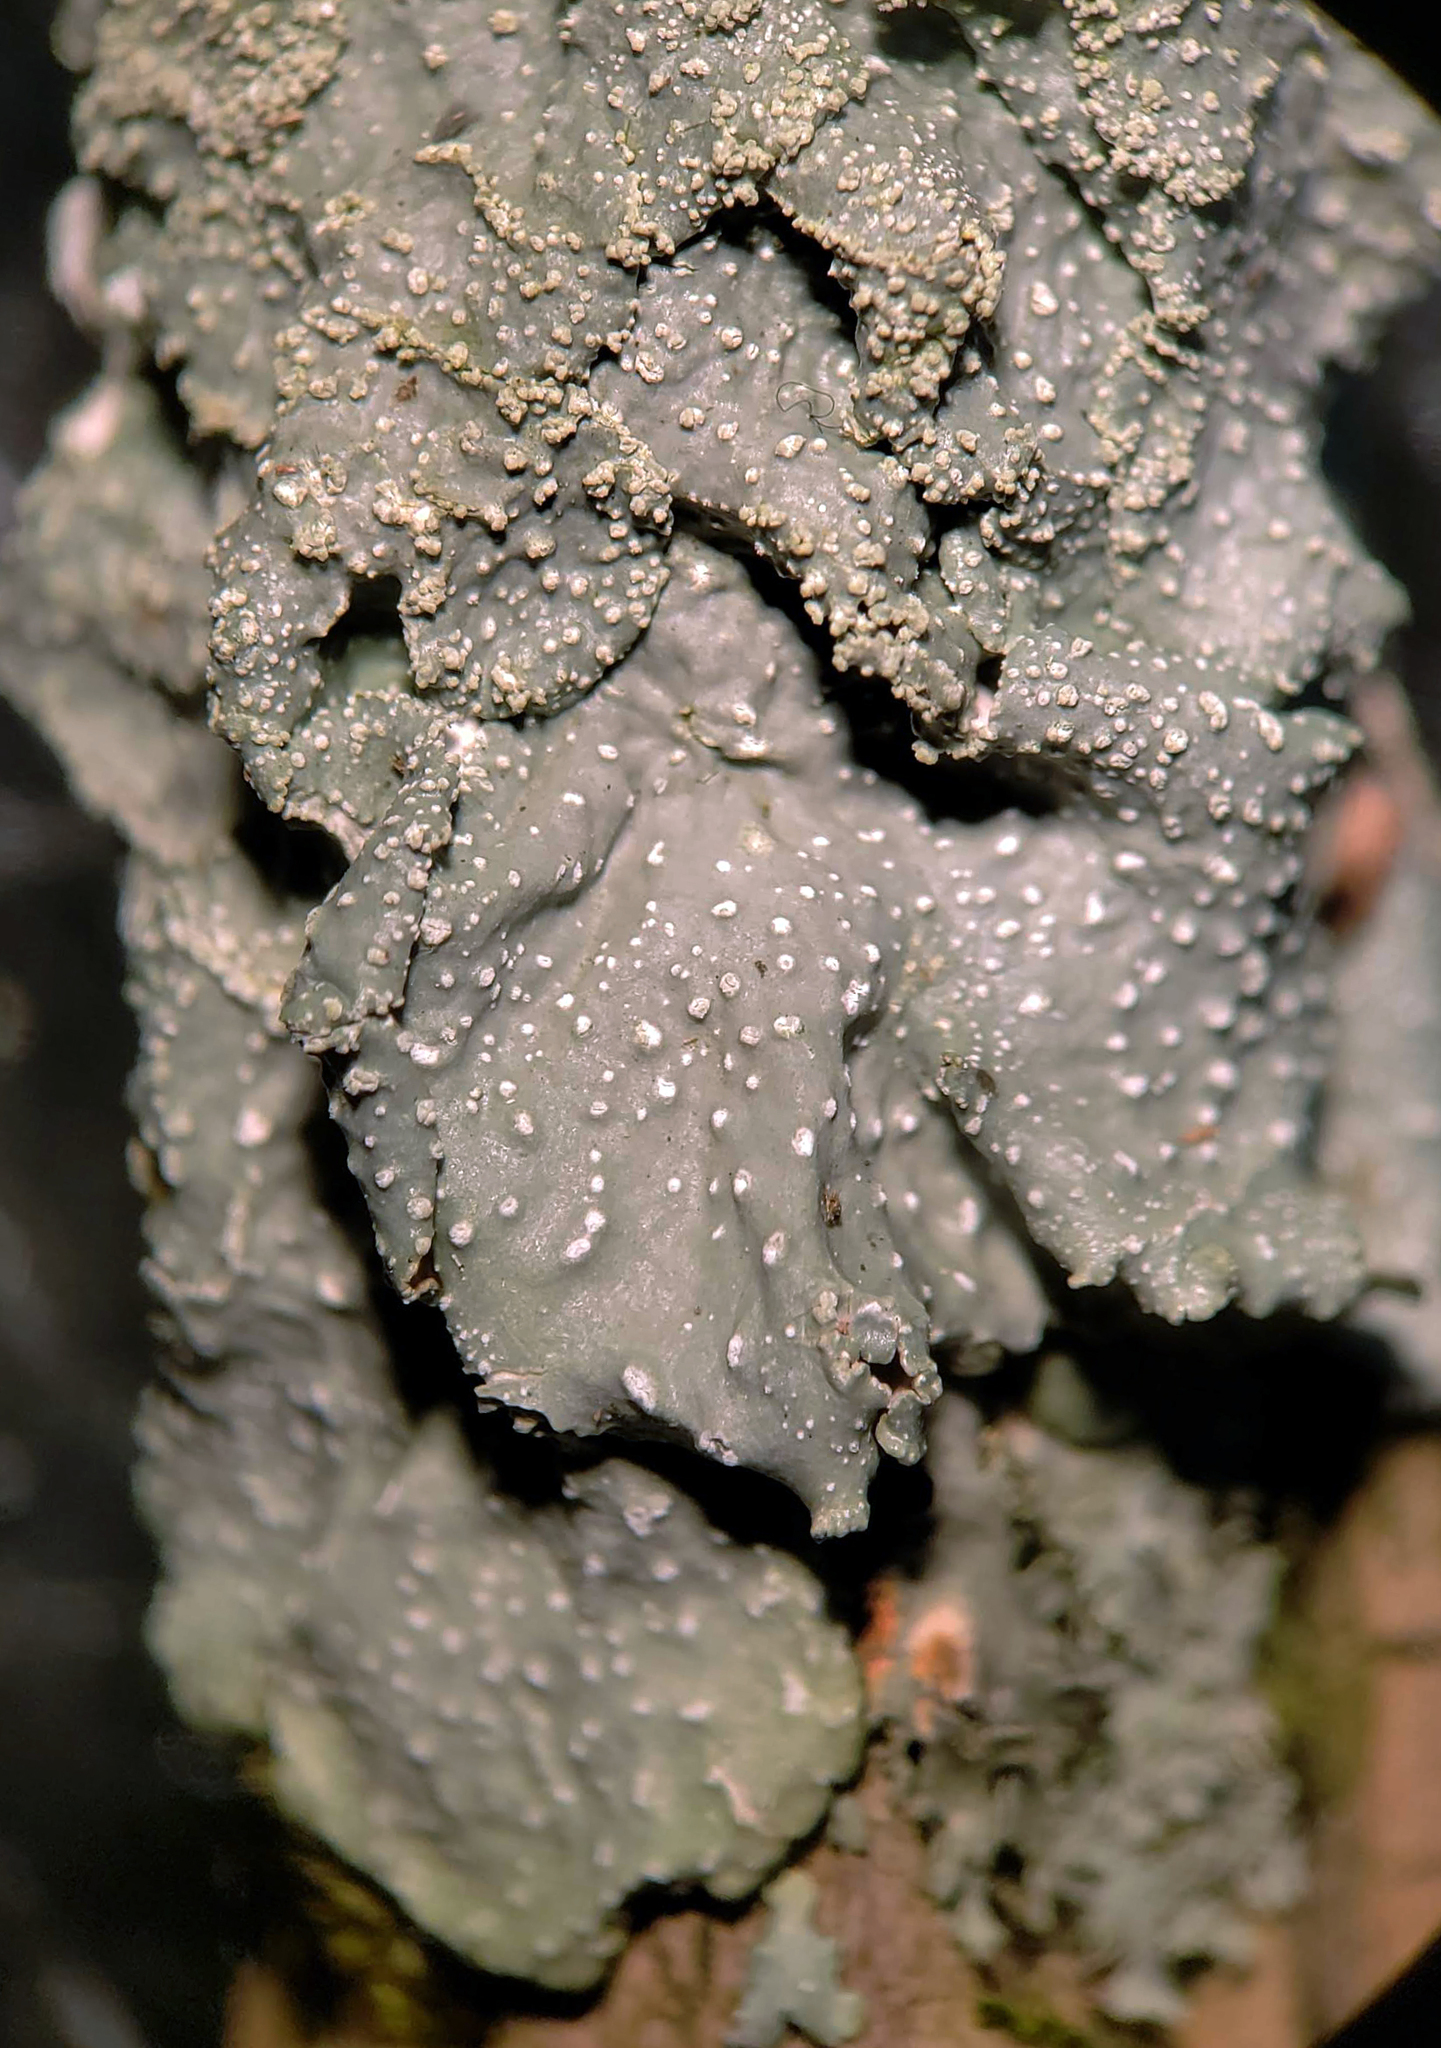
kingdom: Fungi
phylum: Ascomycota
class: Lecanoromycetes
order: Lecanorales
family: Parmeliaceae
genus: Punctelia
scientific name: Punctelia missouriensis
